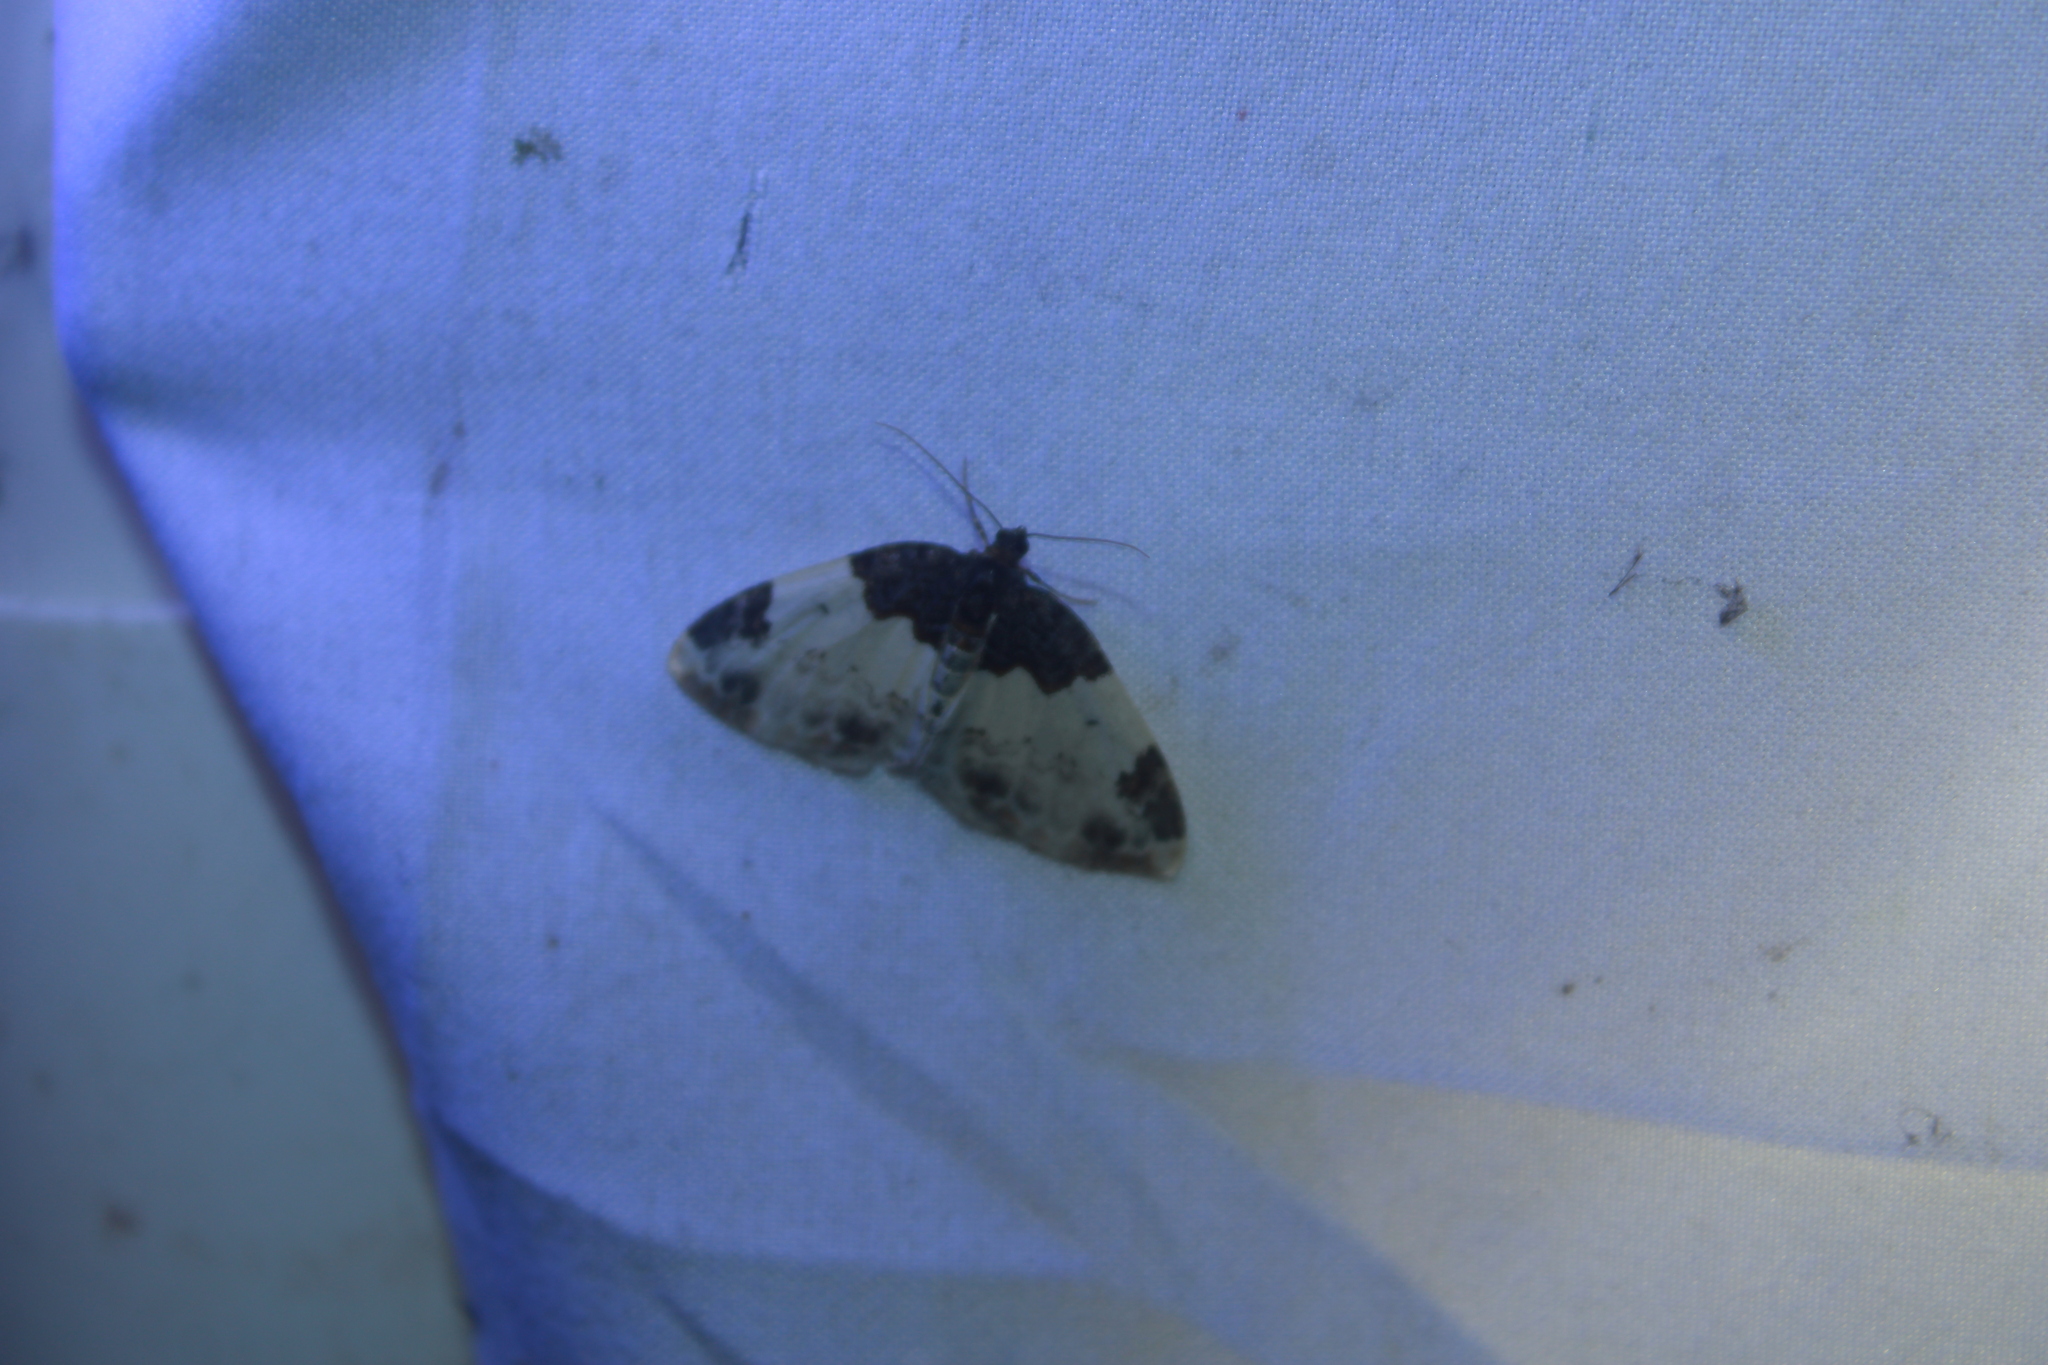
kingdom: Animalia
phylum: Arthropoda
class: Insecta
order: Lepidoptera
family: Geometridae
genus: Mesoleuca
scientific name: Mesoleuca ruficillata
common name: White-ribboned carpet moth
